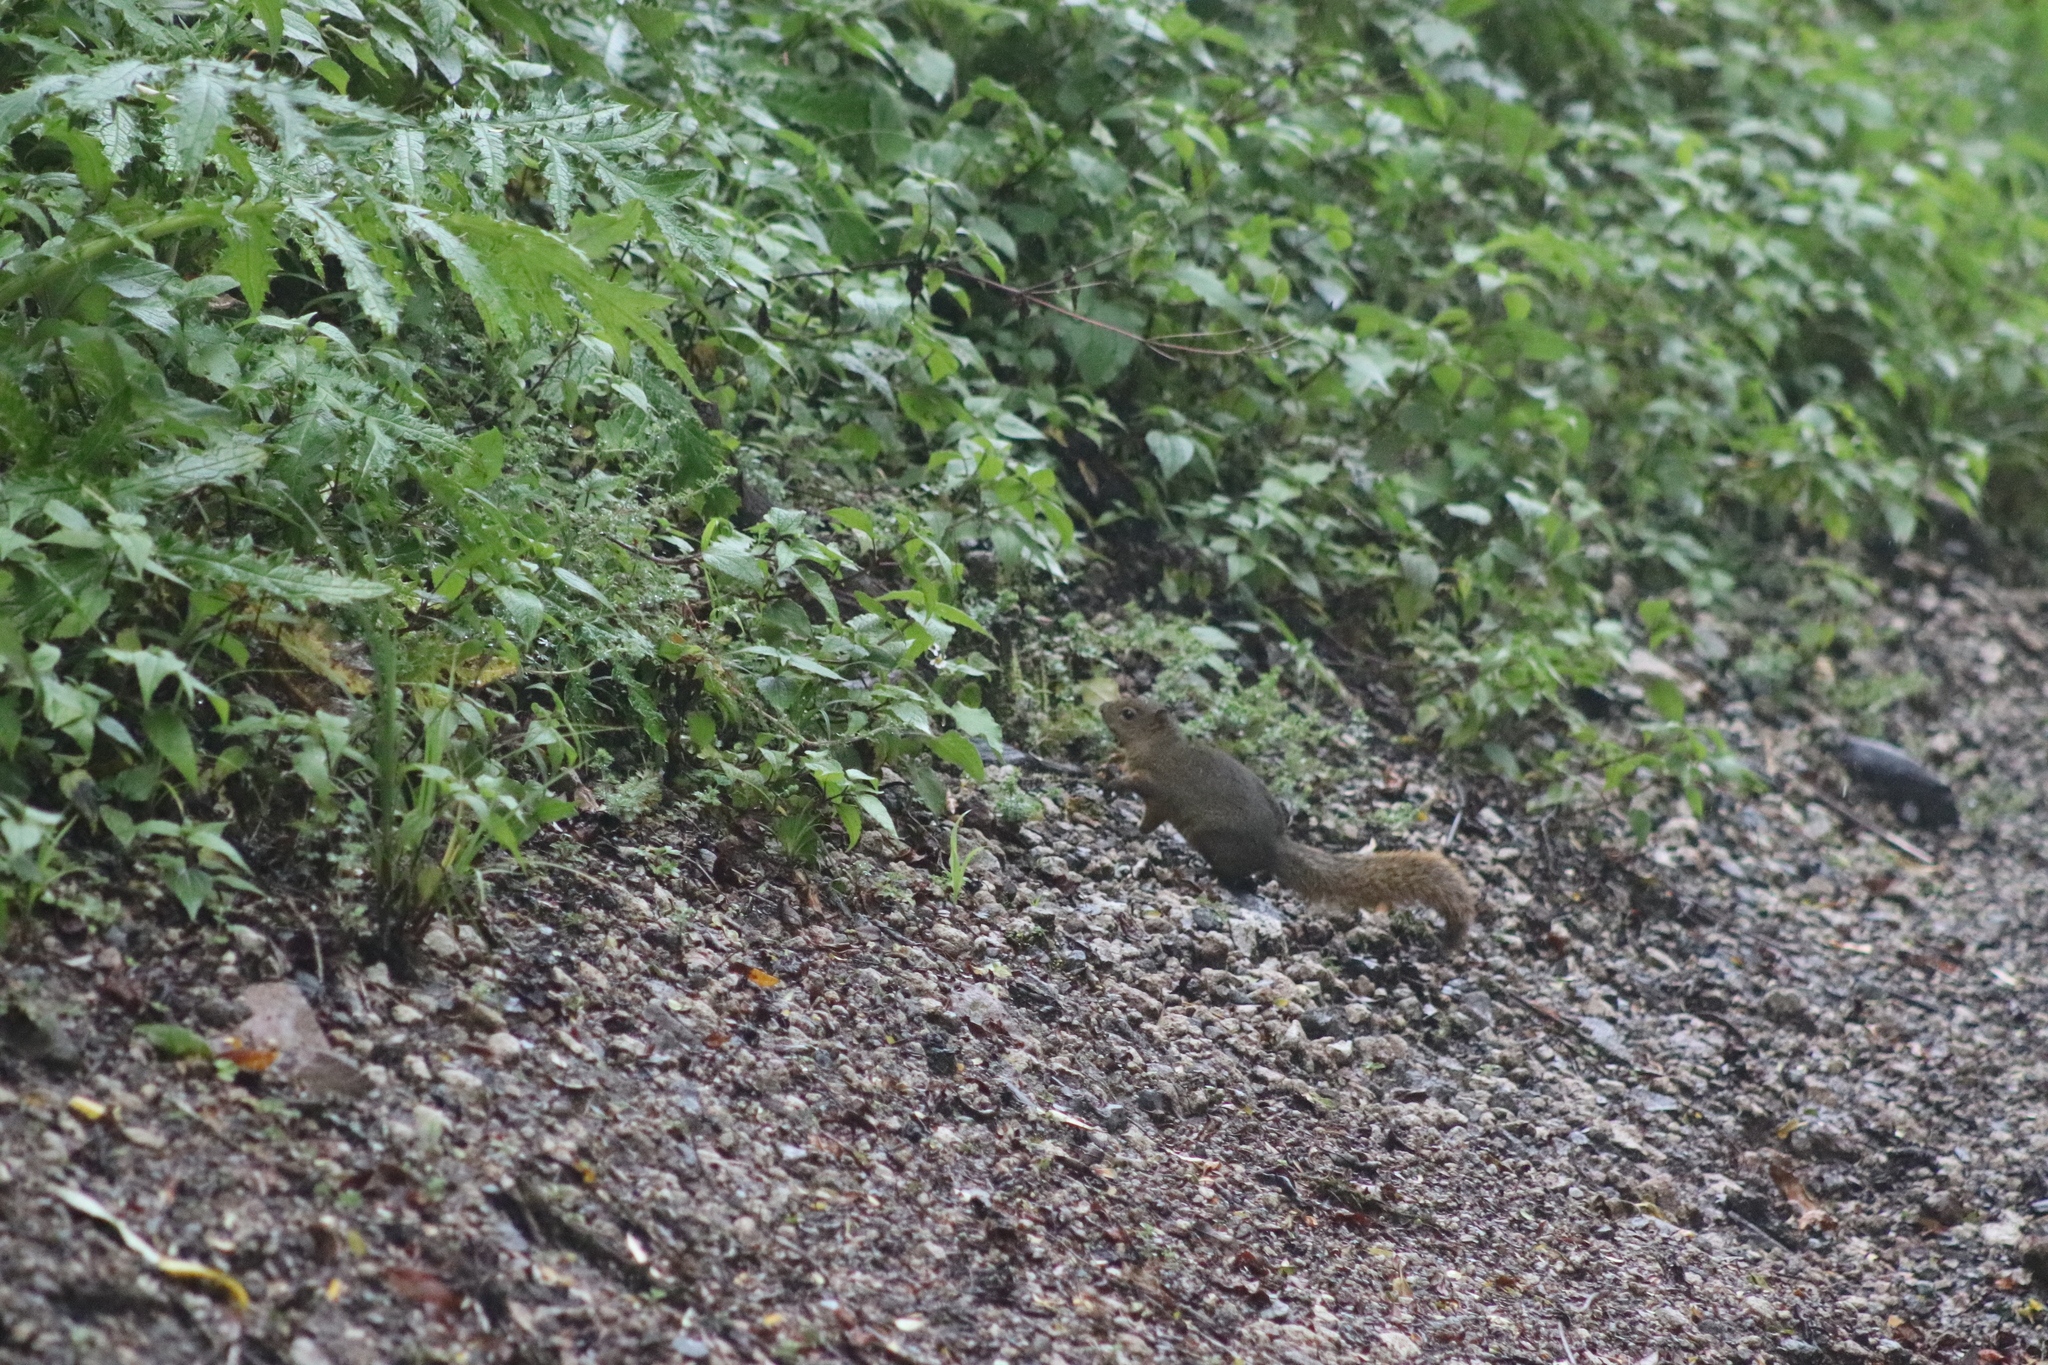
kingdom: Animalia
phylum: Chordata
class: Mammalia
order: Rodentia
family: Sciuridae
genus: Sciurus
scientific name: Sciurus granatensis
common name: Red-tailed squirrel
